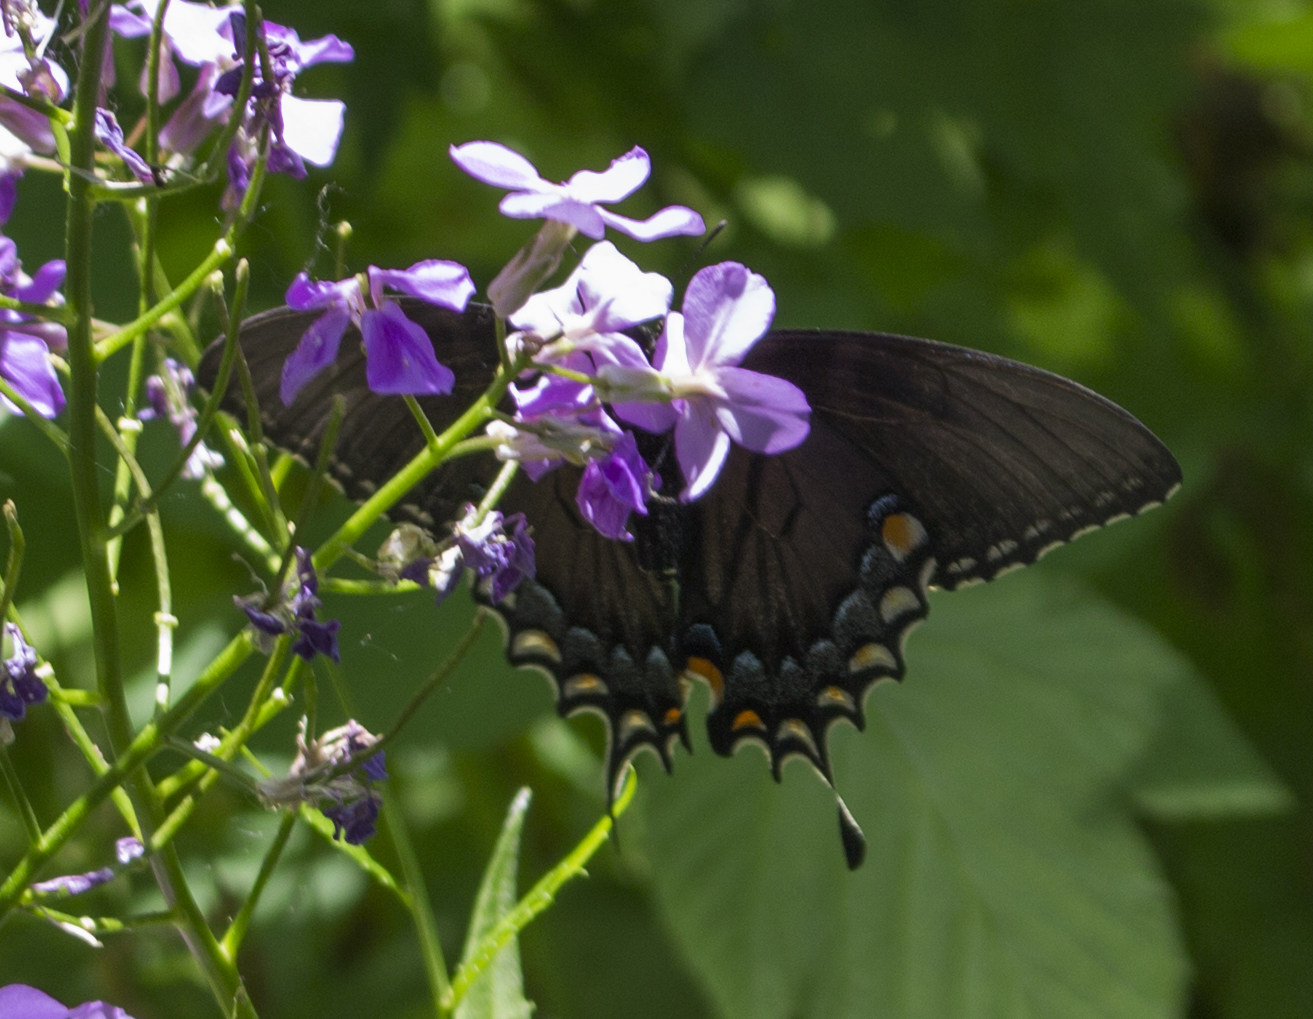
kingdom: Animalia
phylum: Arthropoda
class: Insecta
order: Lepidoptera
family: Papilionidae
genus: Papilio
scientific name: Papilio glaucus
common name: Tiger swallowtail
